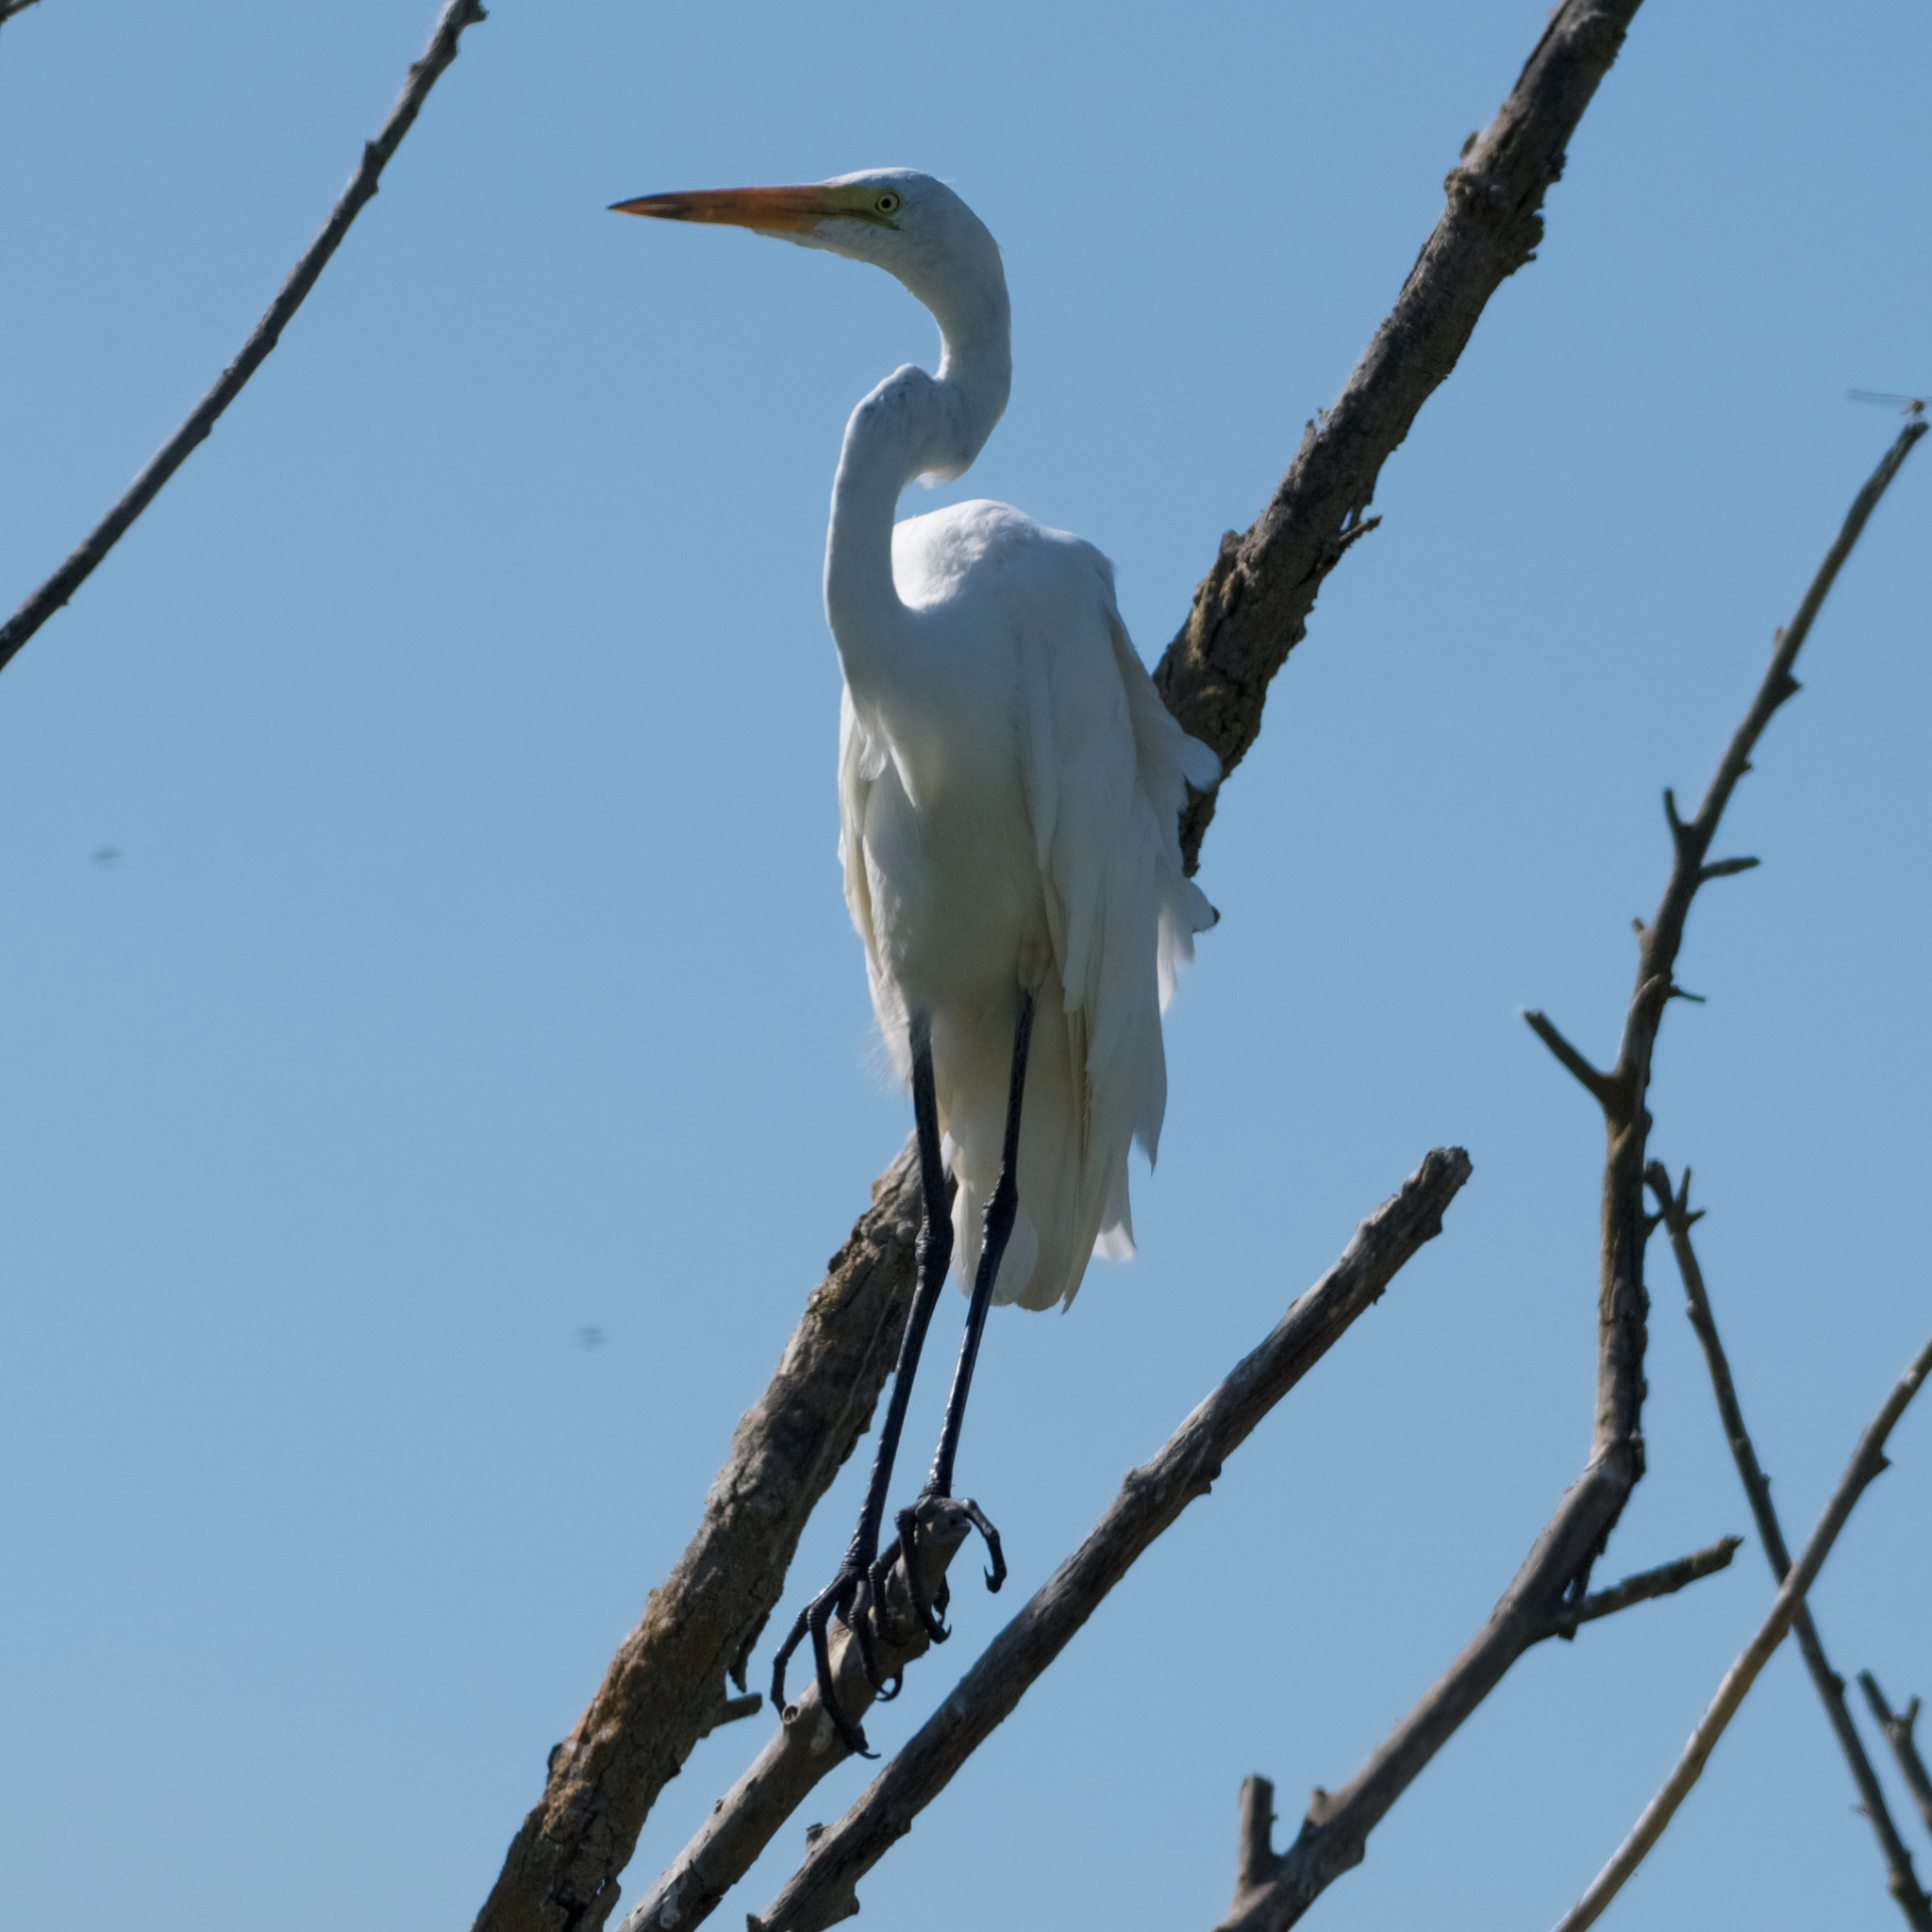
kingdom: Animalia
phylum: Chordata
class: Aves
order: Pelecaniformes
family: Ardeidae
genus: Ardea
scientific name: Ardea alba
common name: Great egret
